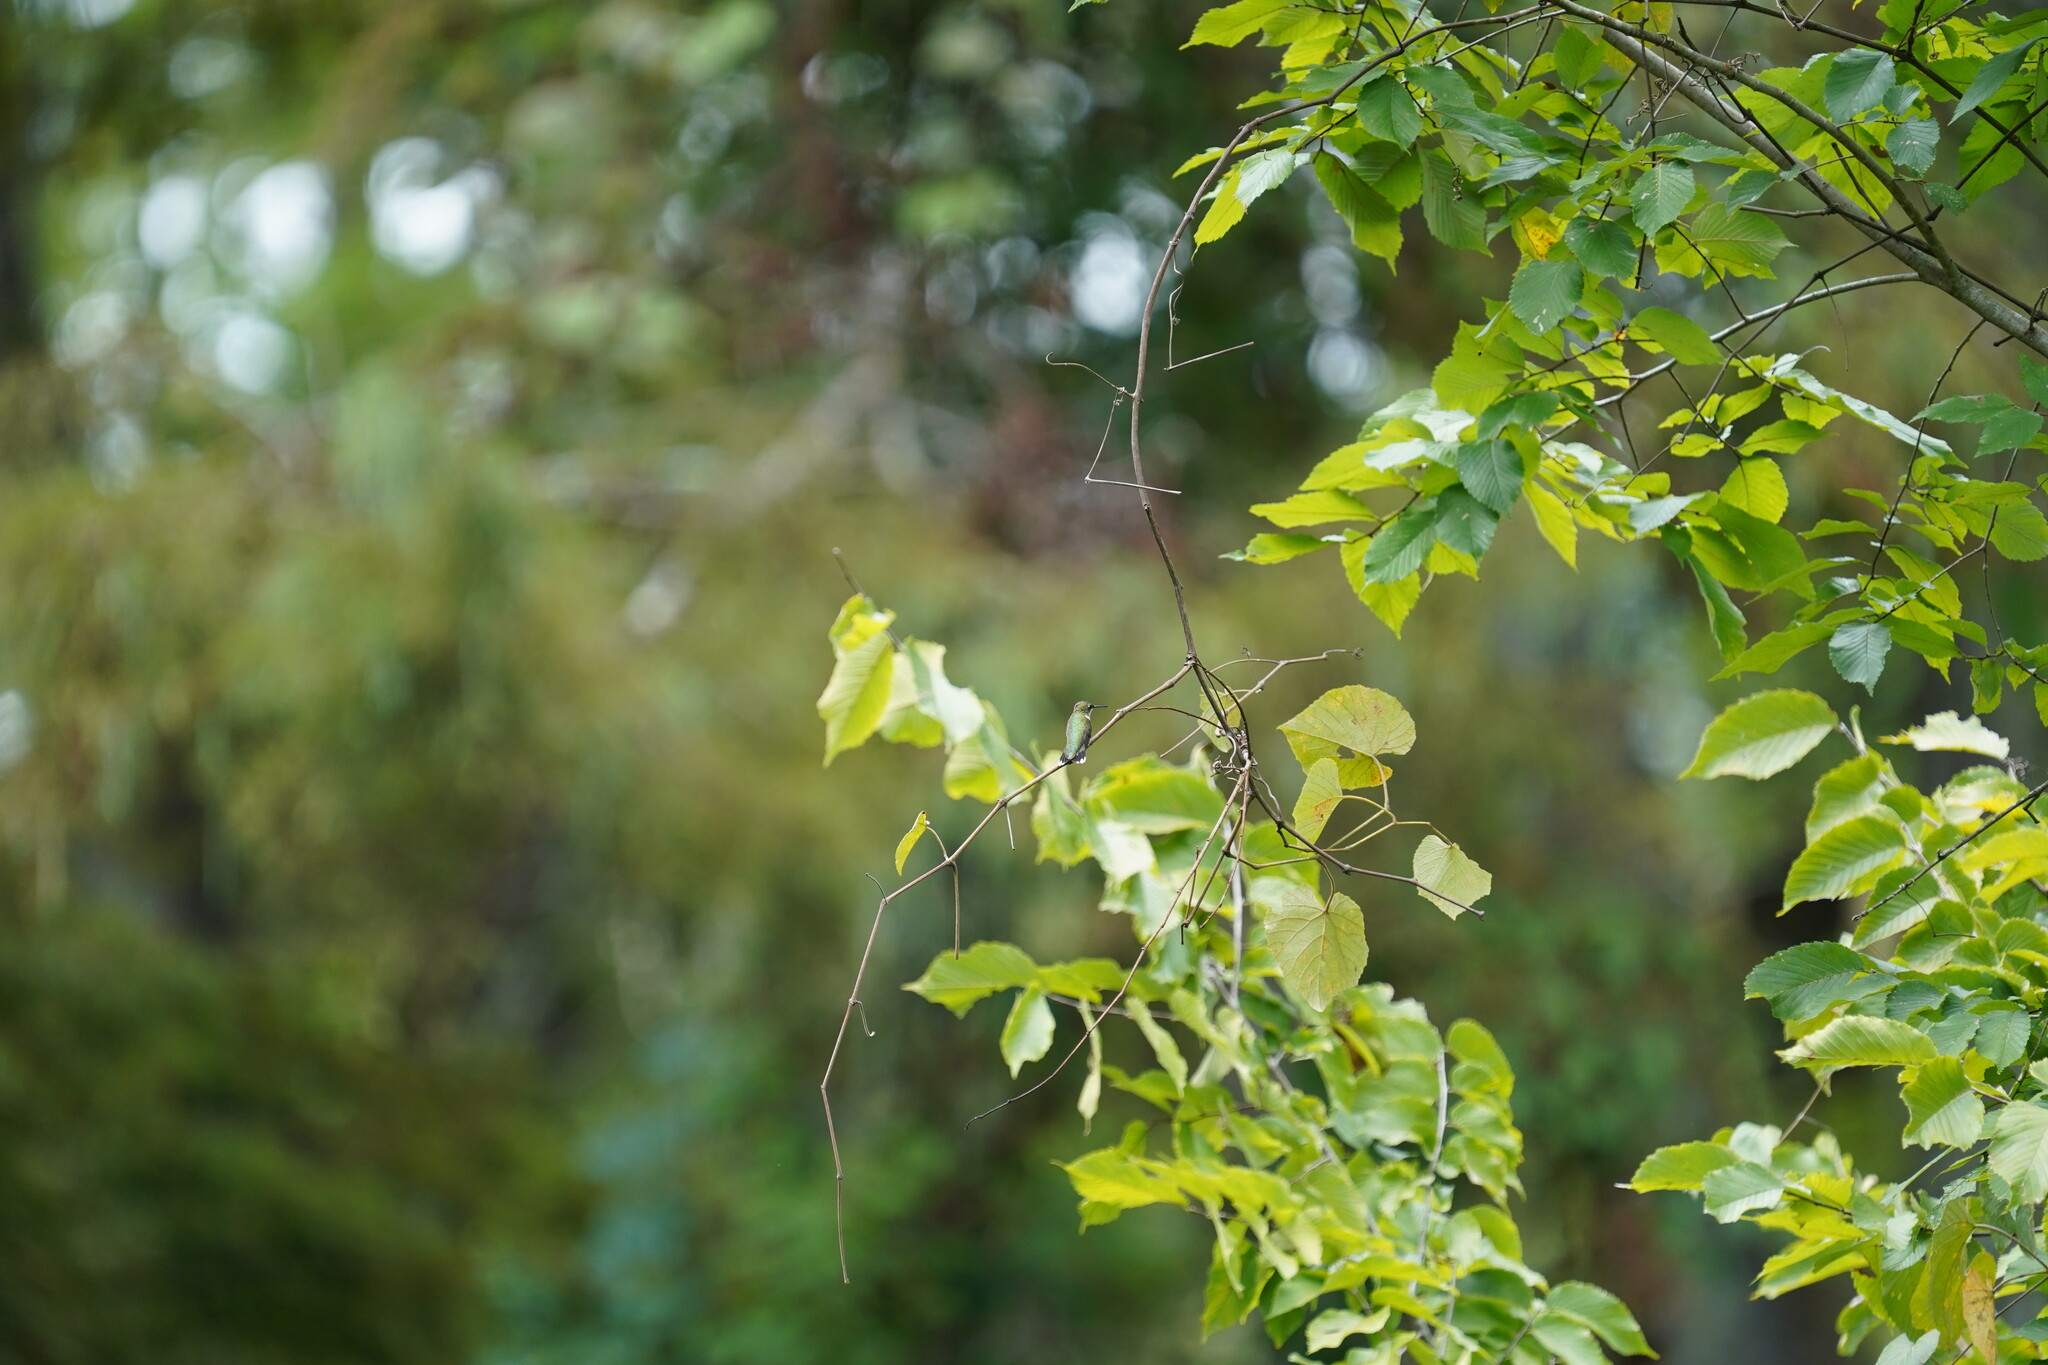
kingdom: Animalia
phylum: Chordata
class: Aves
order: Apodiformes
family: Trochilidae
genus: Archilochus
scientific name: Archilochus colubris
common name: Ruby-throated hummingbird
